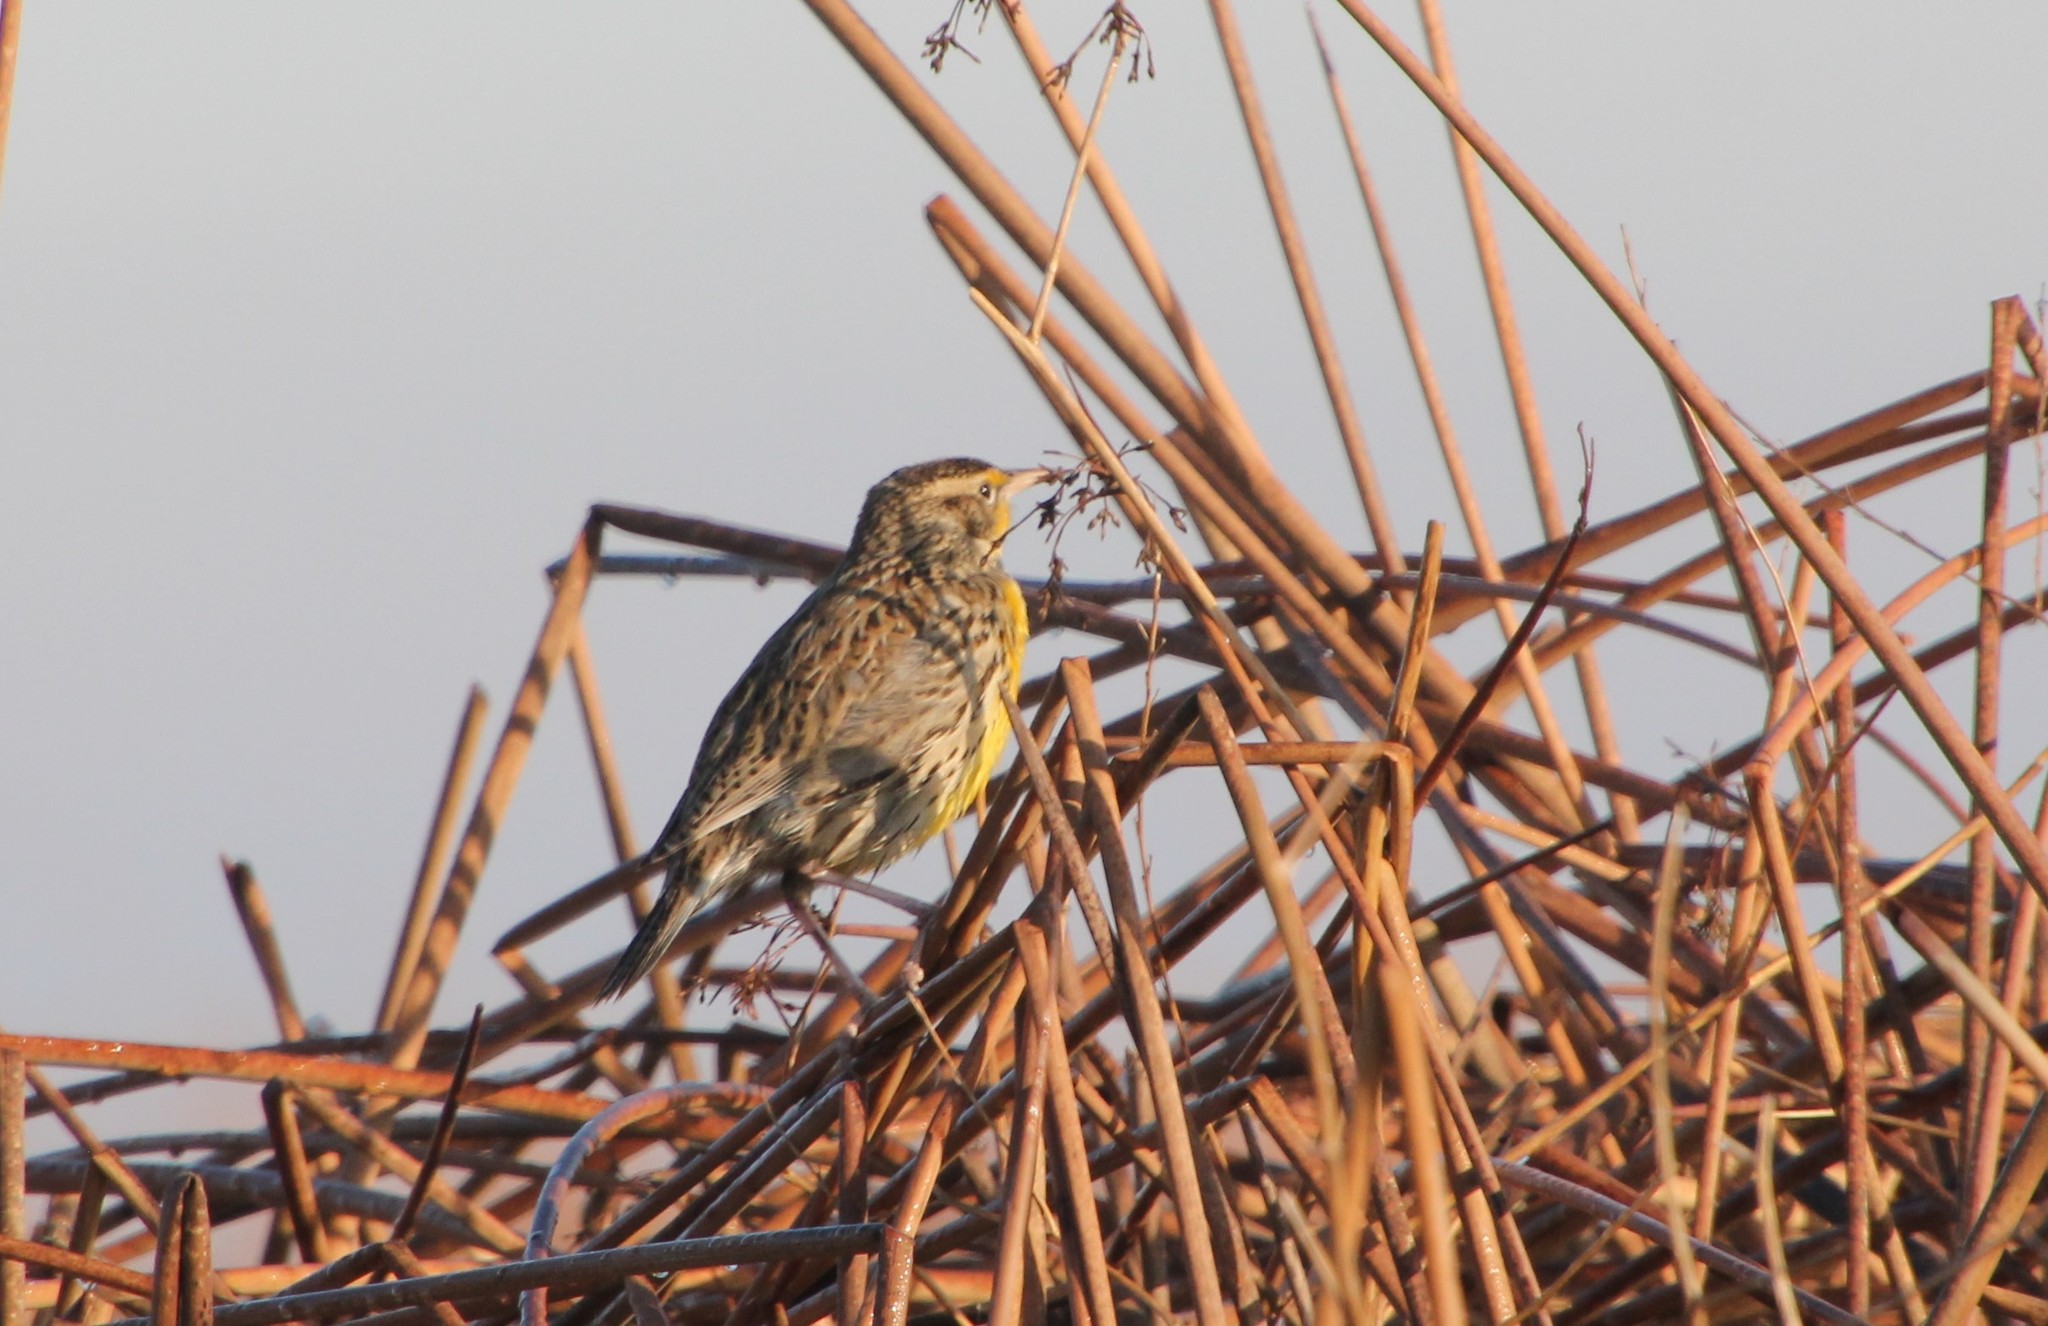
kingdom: Animalia
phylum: Chordata
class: Aves
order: Passeriformes
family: Icteridae
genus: Sturnella
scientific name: Sturnella neglecta
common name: Western meadowlark
